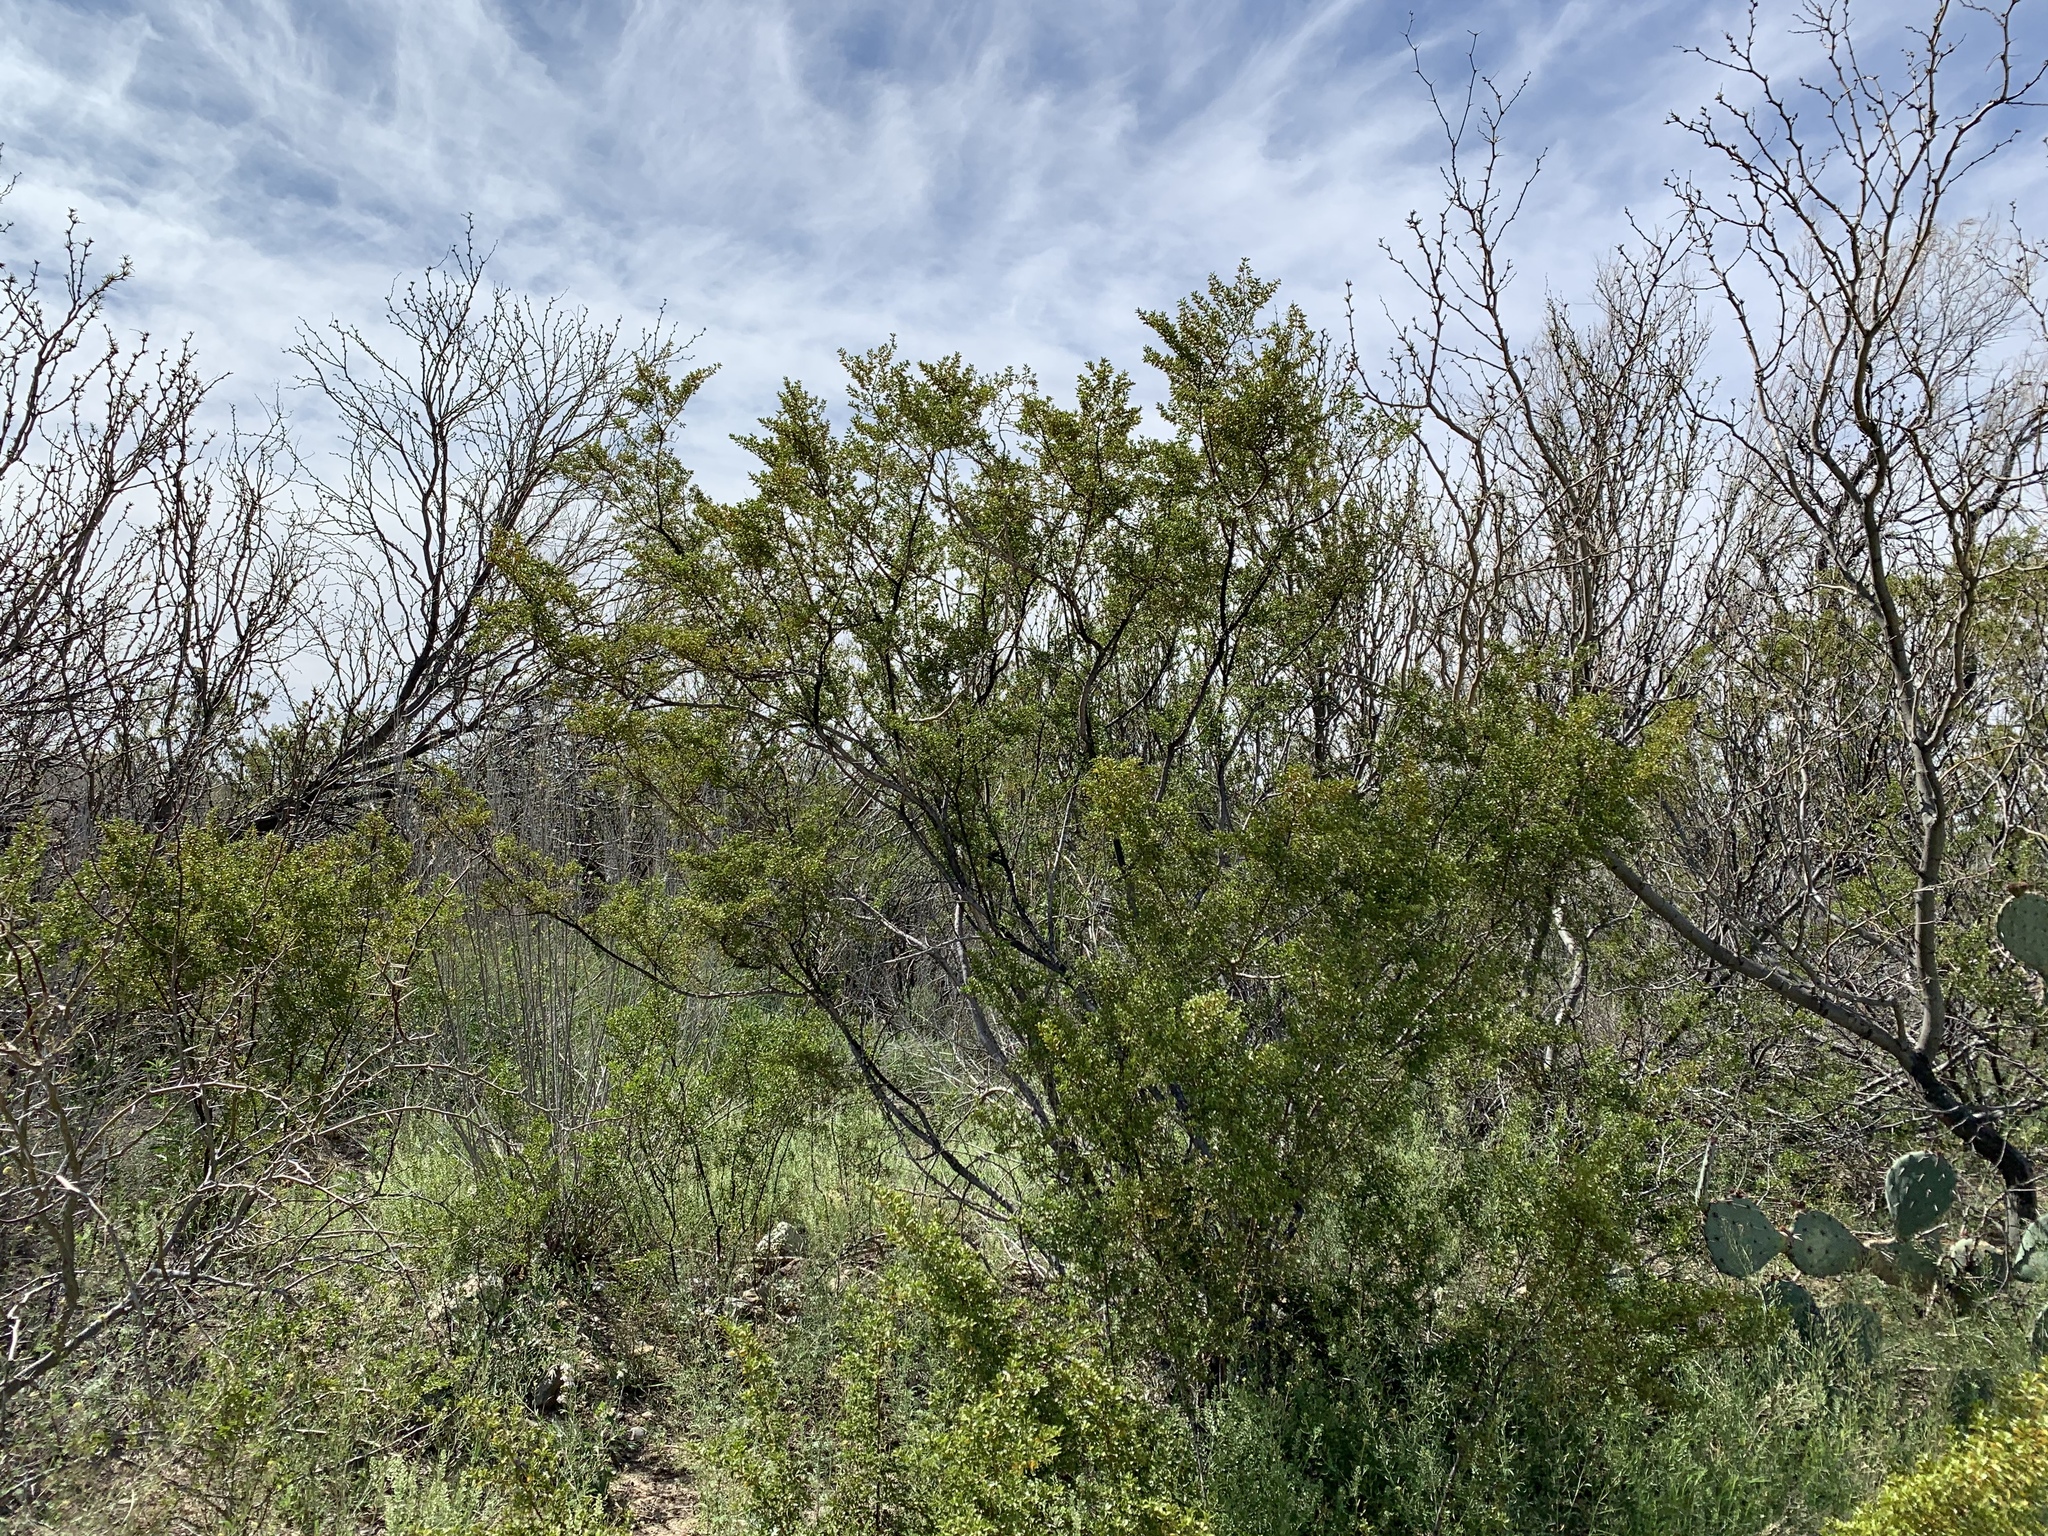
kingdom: Plantae
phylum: Tracheophyta
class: Magnoliopsida
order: Zygophyllales
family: Zygophyllaceae
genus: Larrea
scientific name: Larrea tridentata
